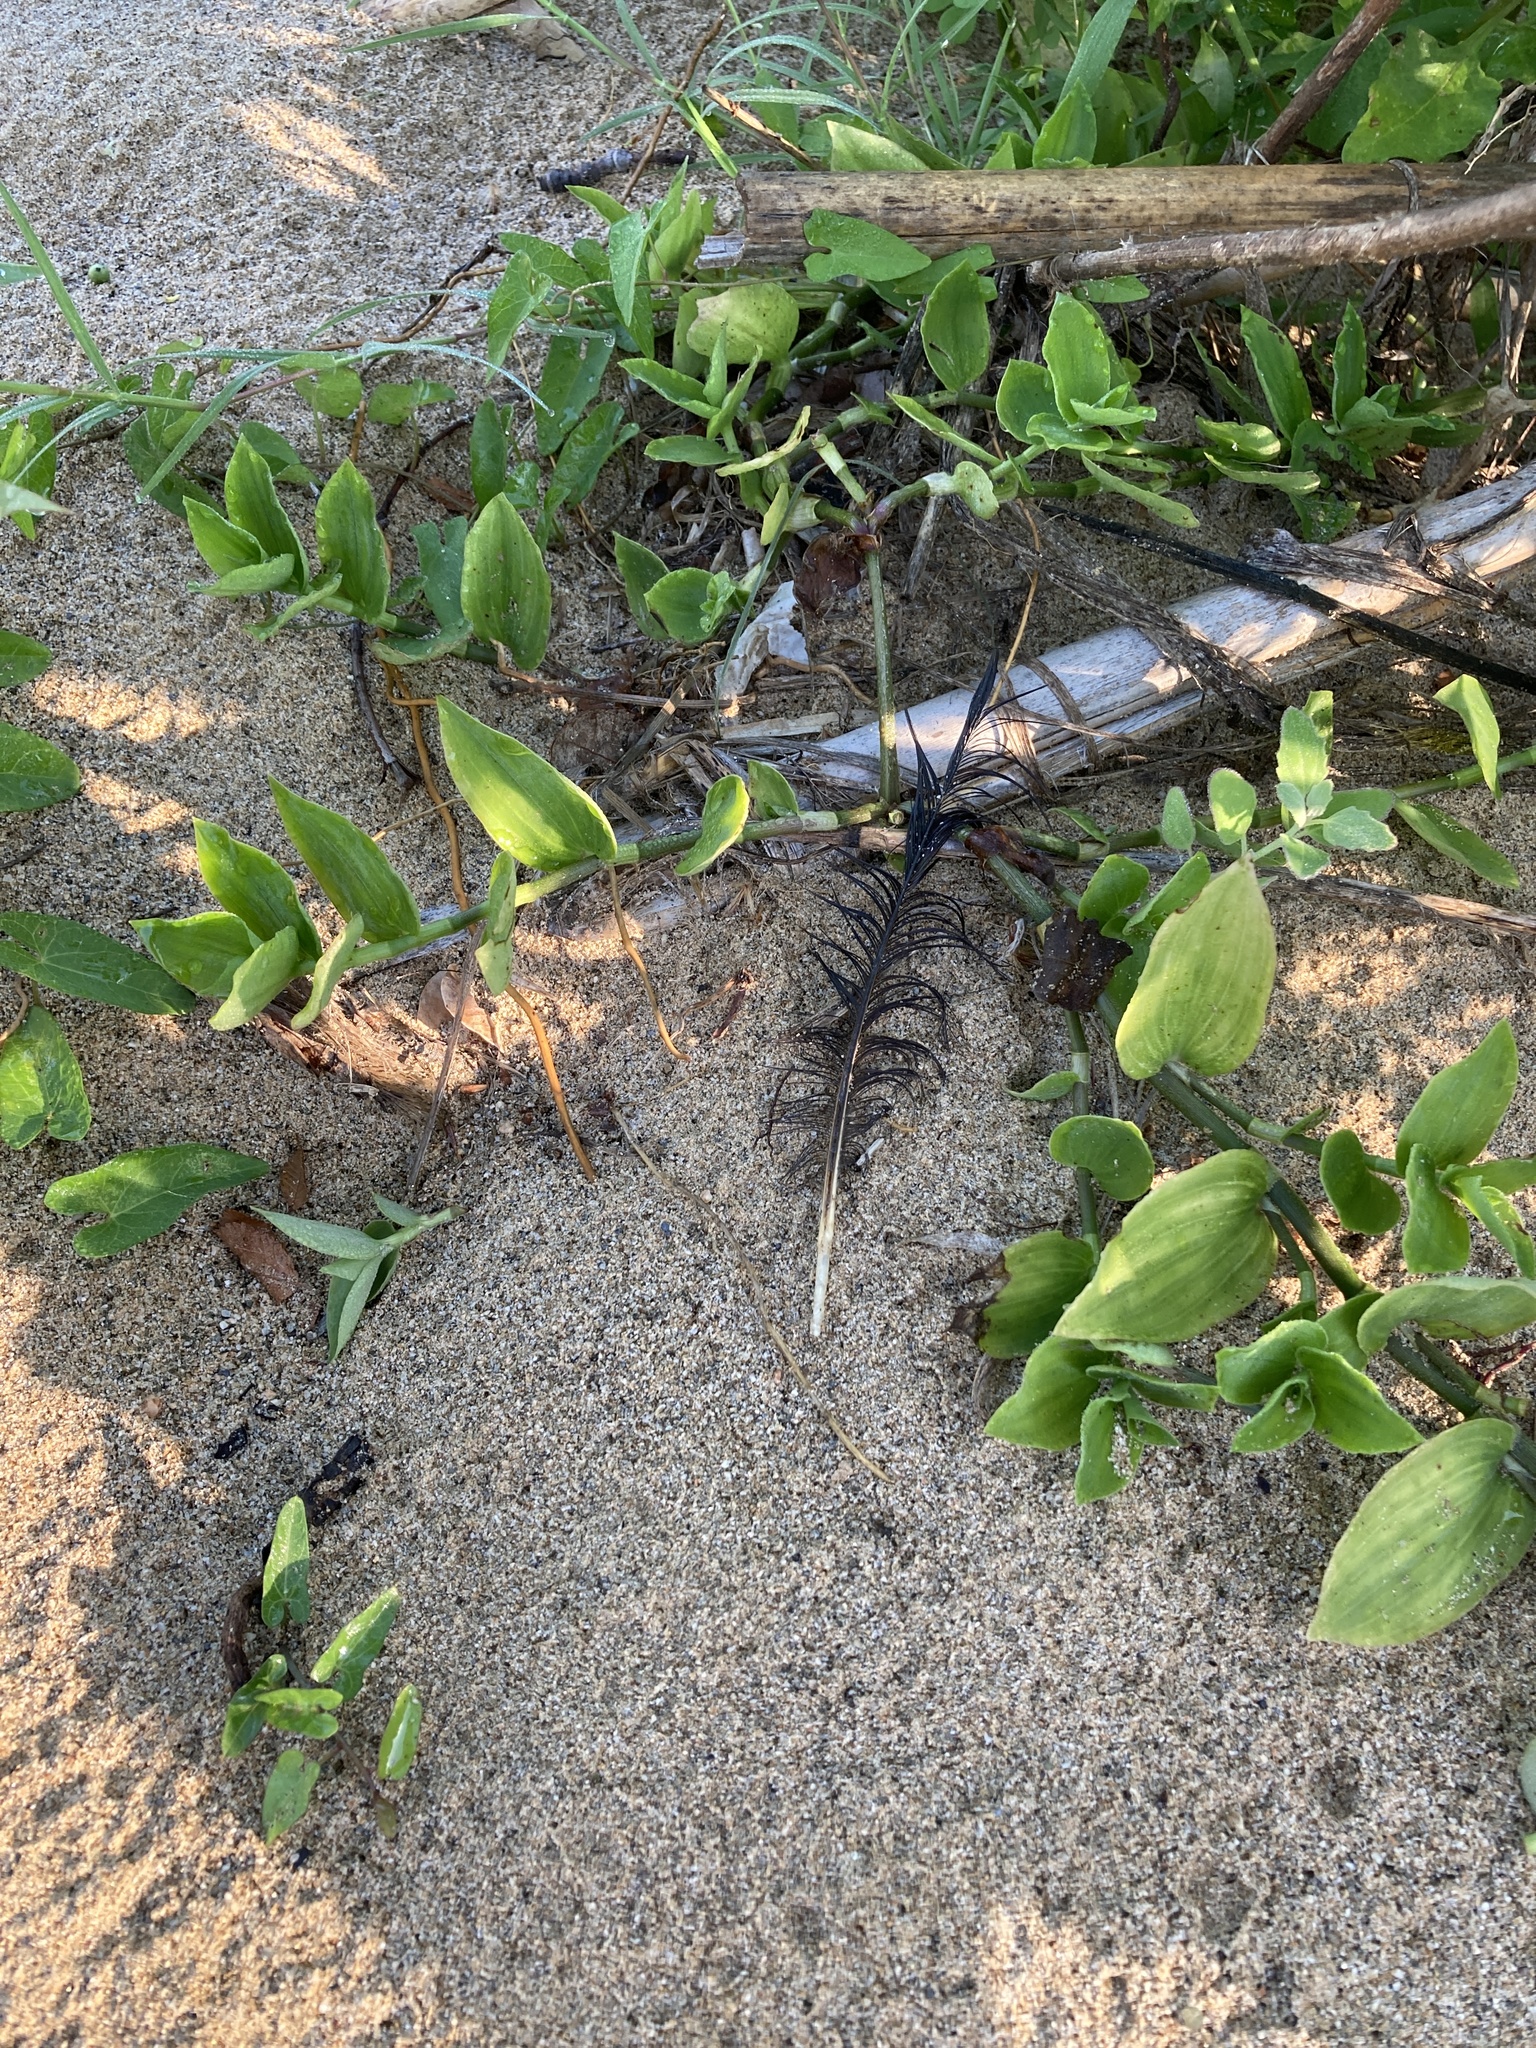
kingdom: Plantae
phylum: Tracheophyta
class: Liliopsida
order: Commelinales
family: Commelinaceae
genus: Tradescantia
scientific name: Tradescantia fluminensis
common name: Wandering-jew
